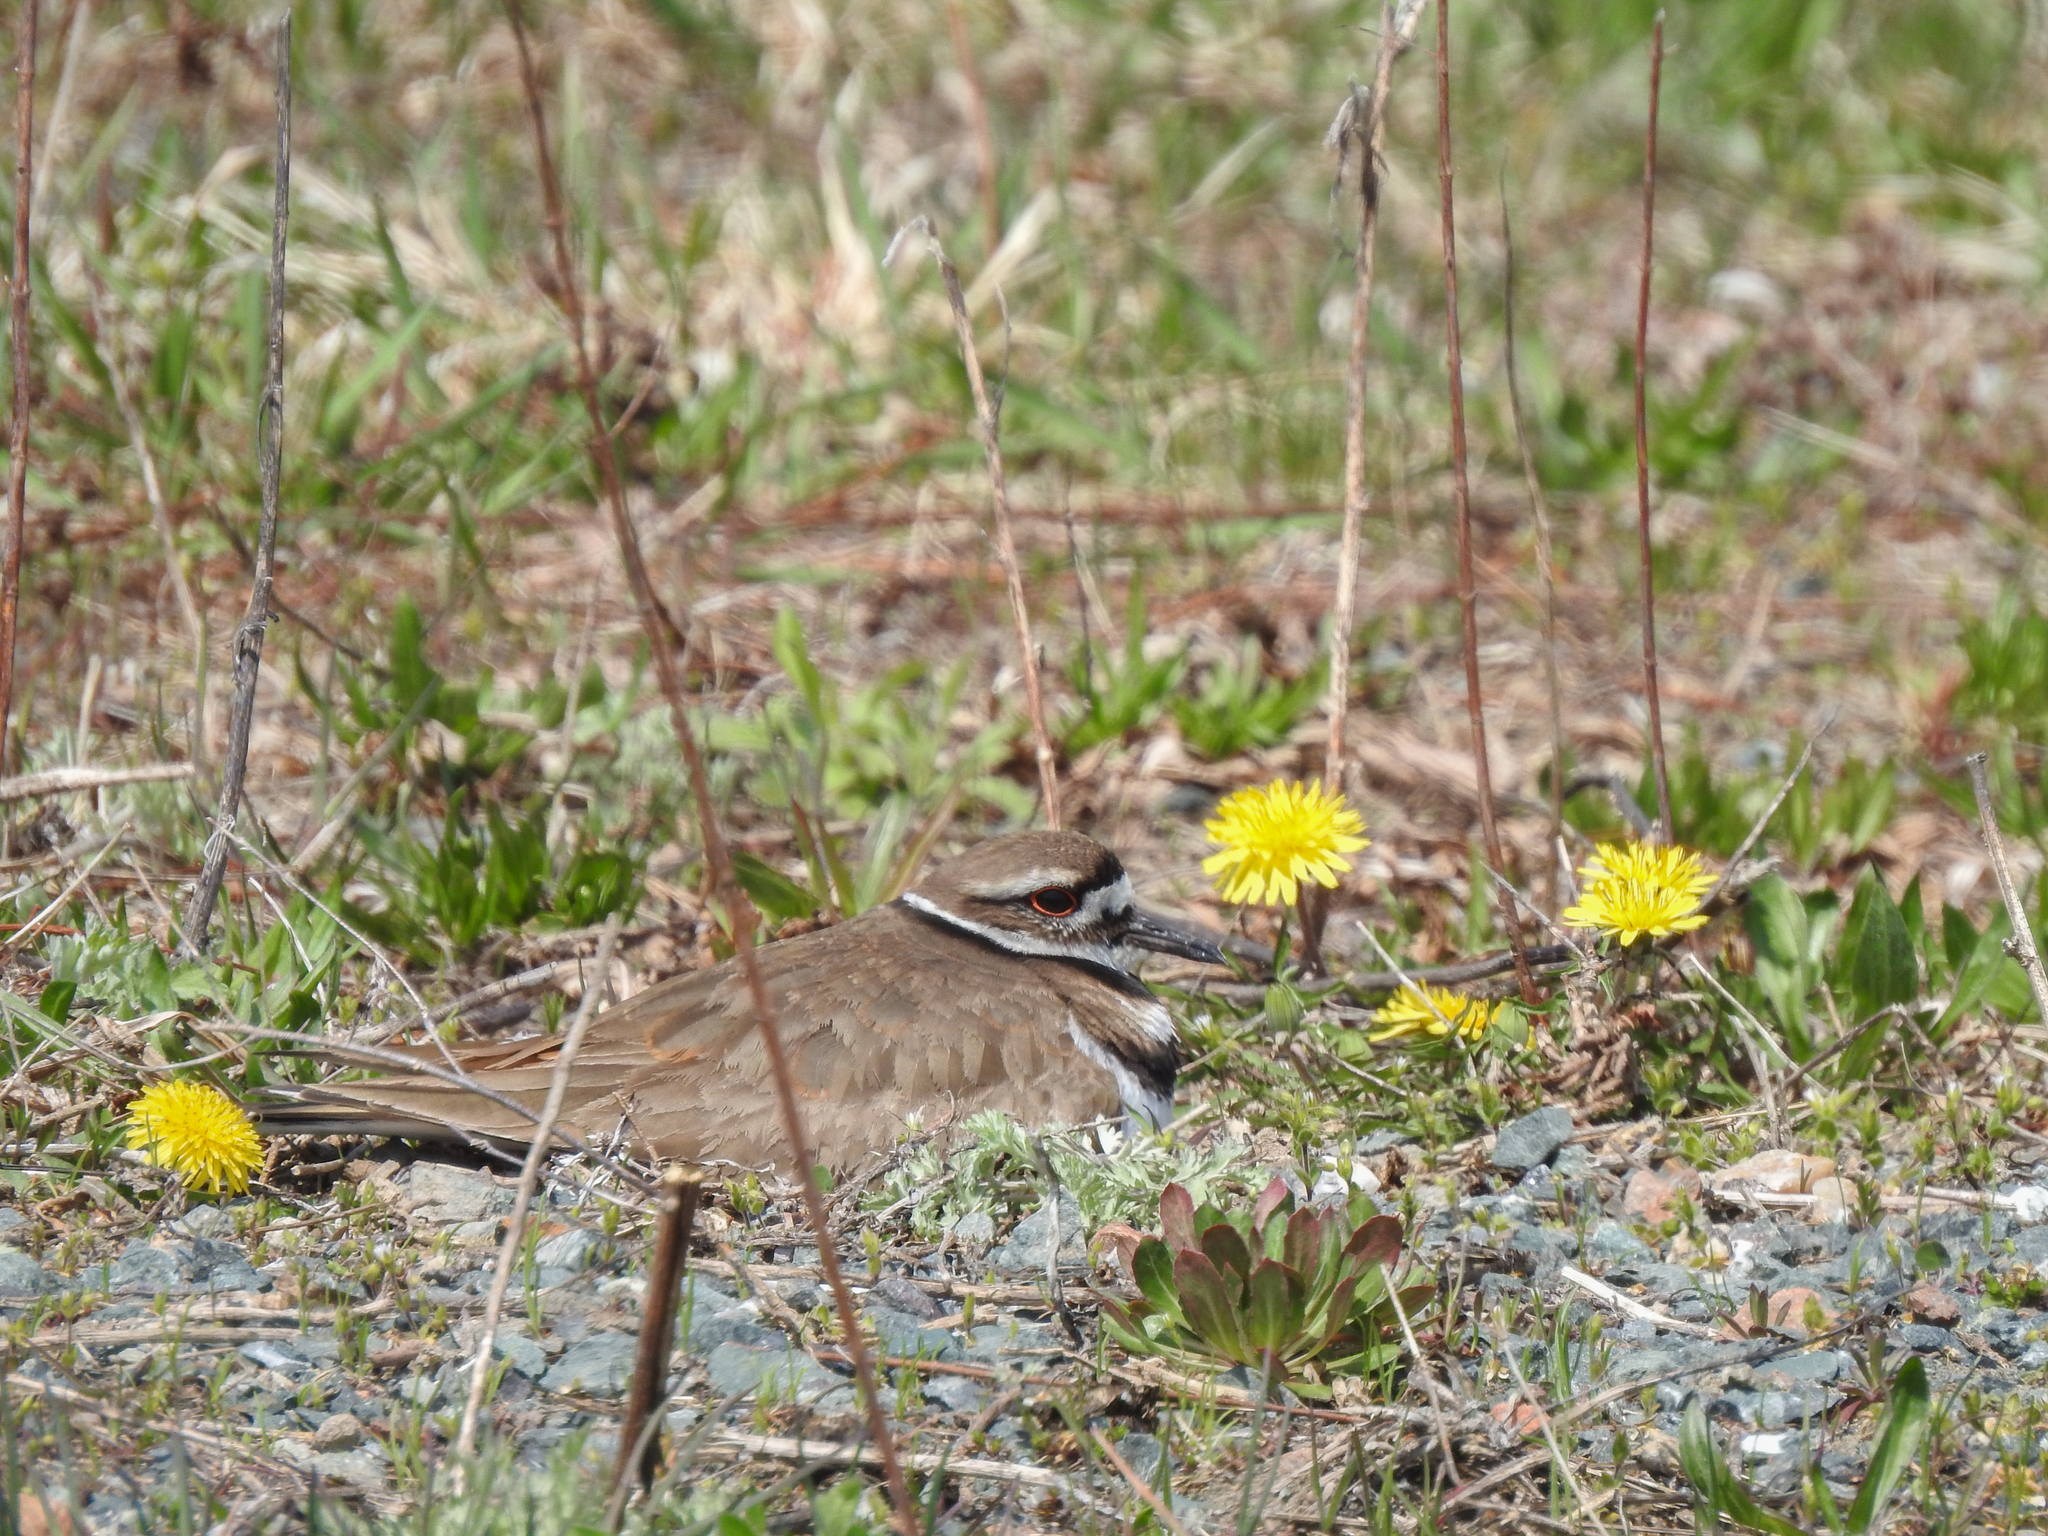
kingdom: Animalia
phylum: Chordata
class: Aves
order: Charadriiformes
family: Charadriidae
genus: Charadrius
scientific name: Charadrius vociferus
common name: Killdeer
